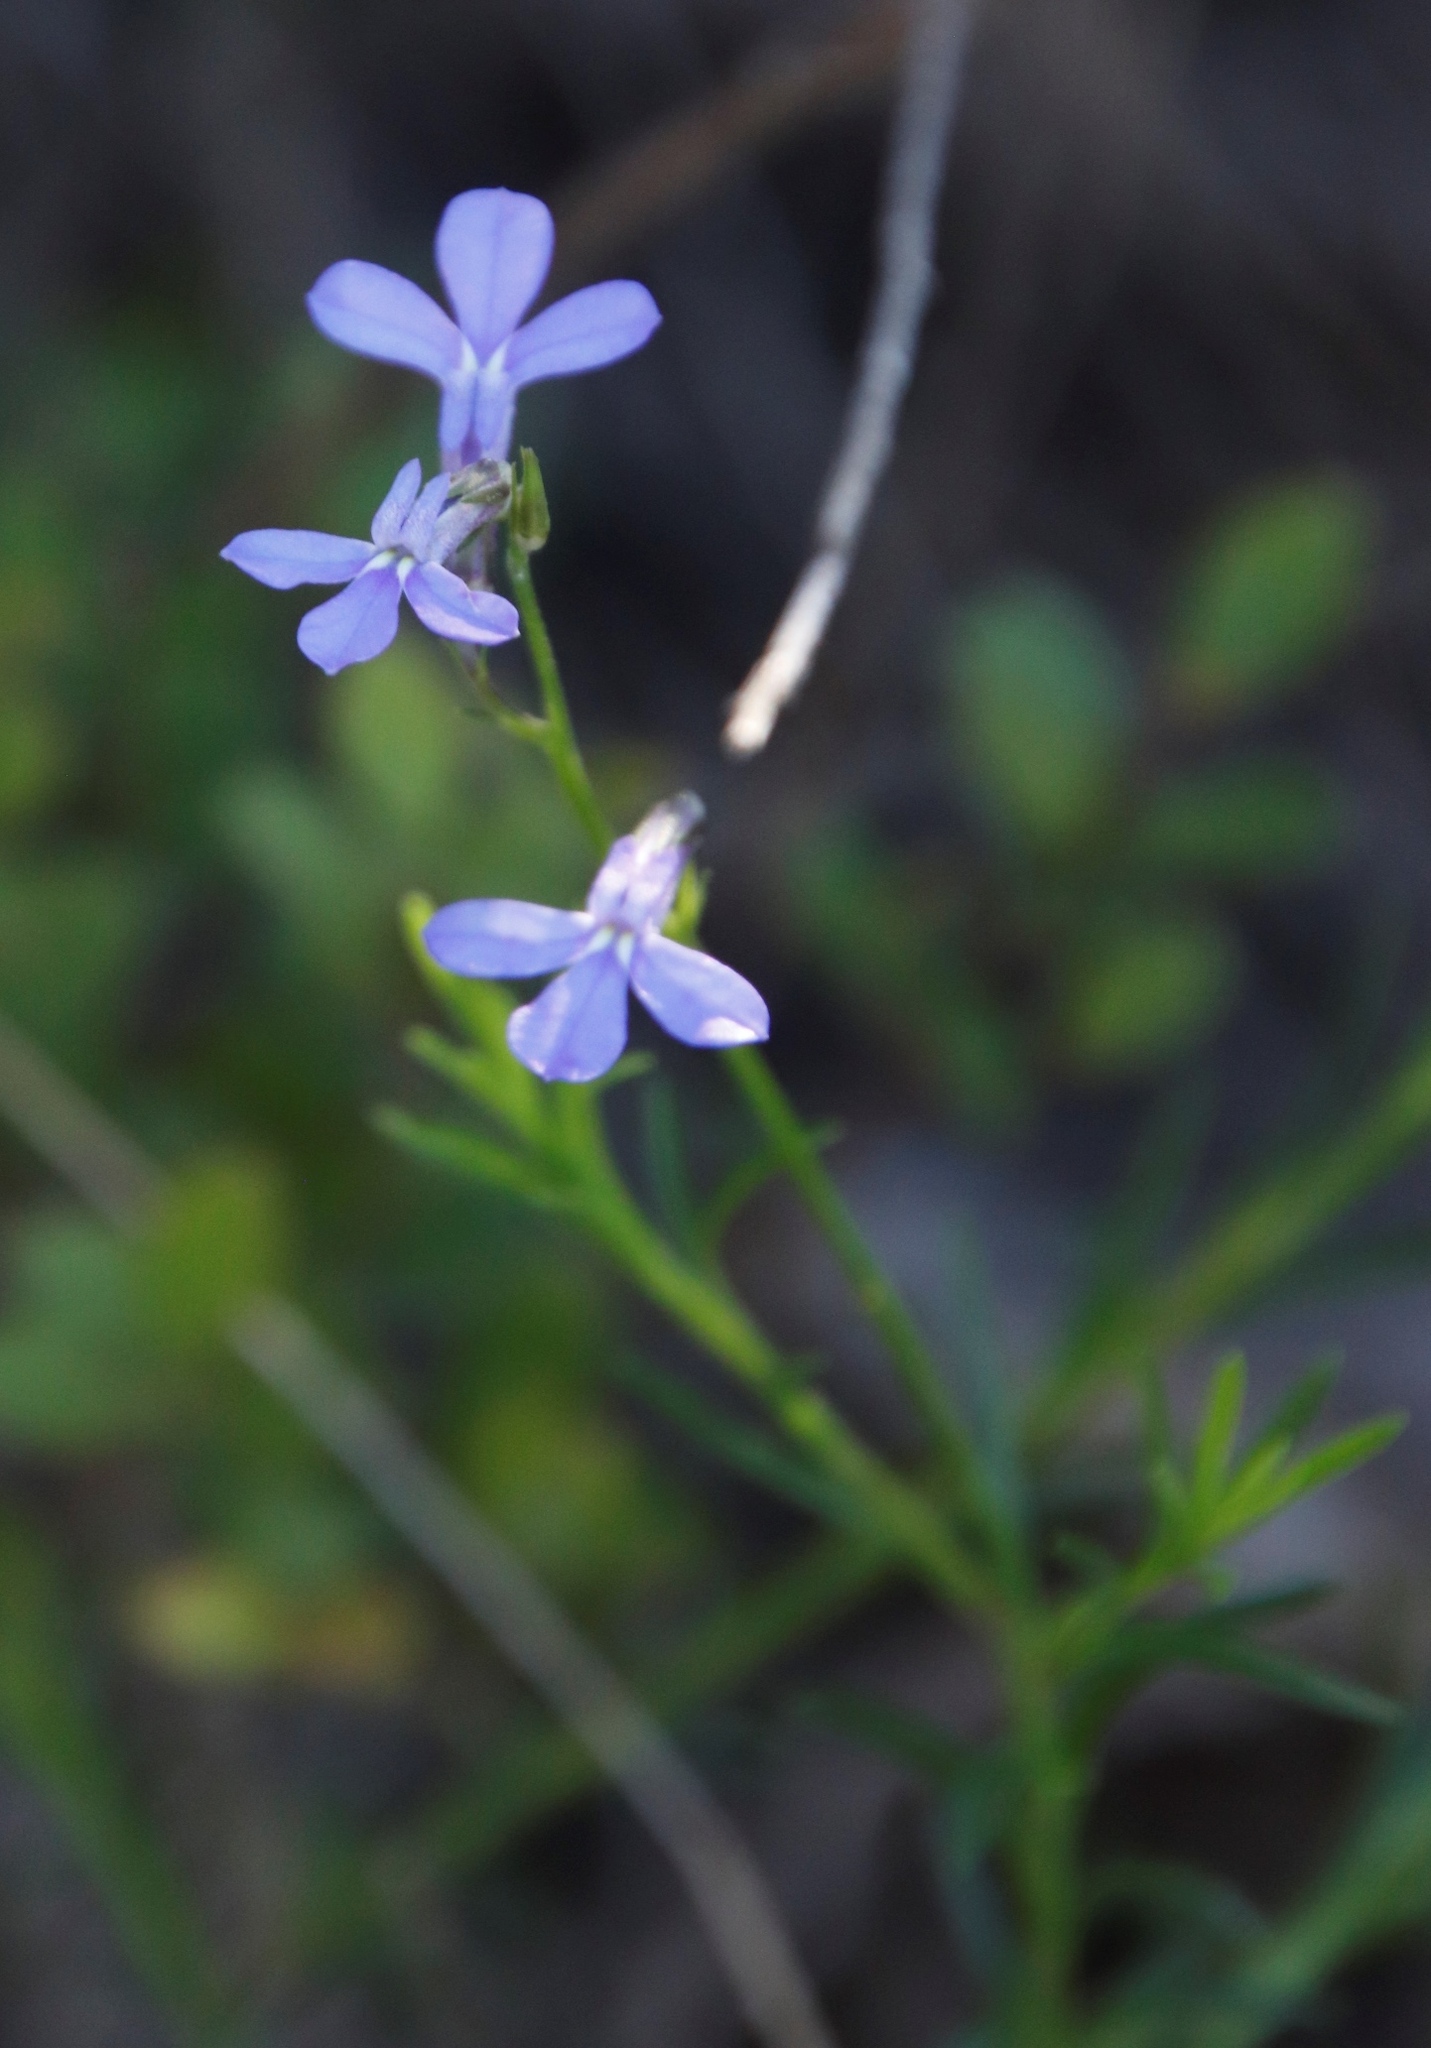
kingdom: Plantae
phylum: Tracheophyta
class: Magnoliopsida
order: Asterales
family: Campanulaceae
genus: Lobelia
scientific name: Lobelia pinifolia
